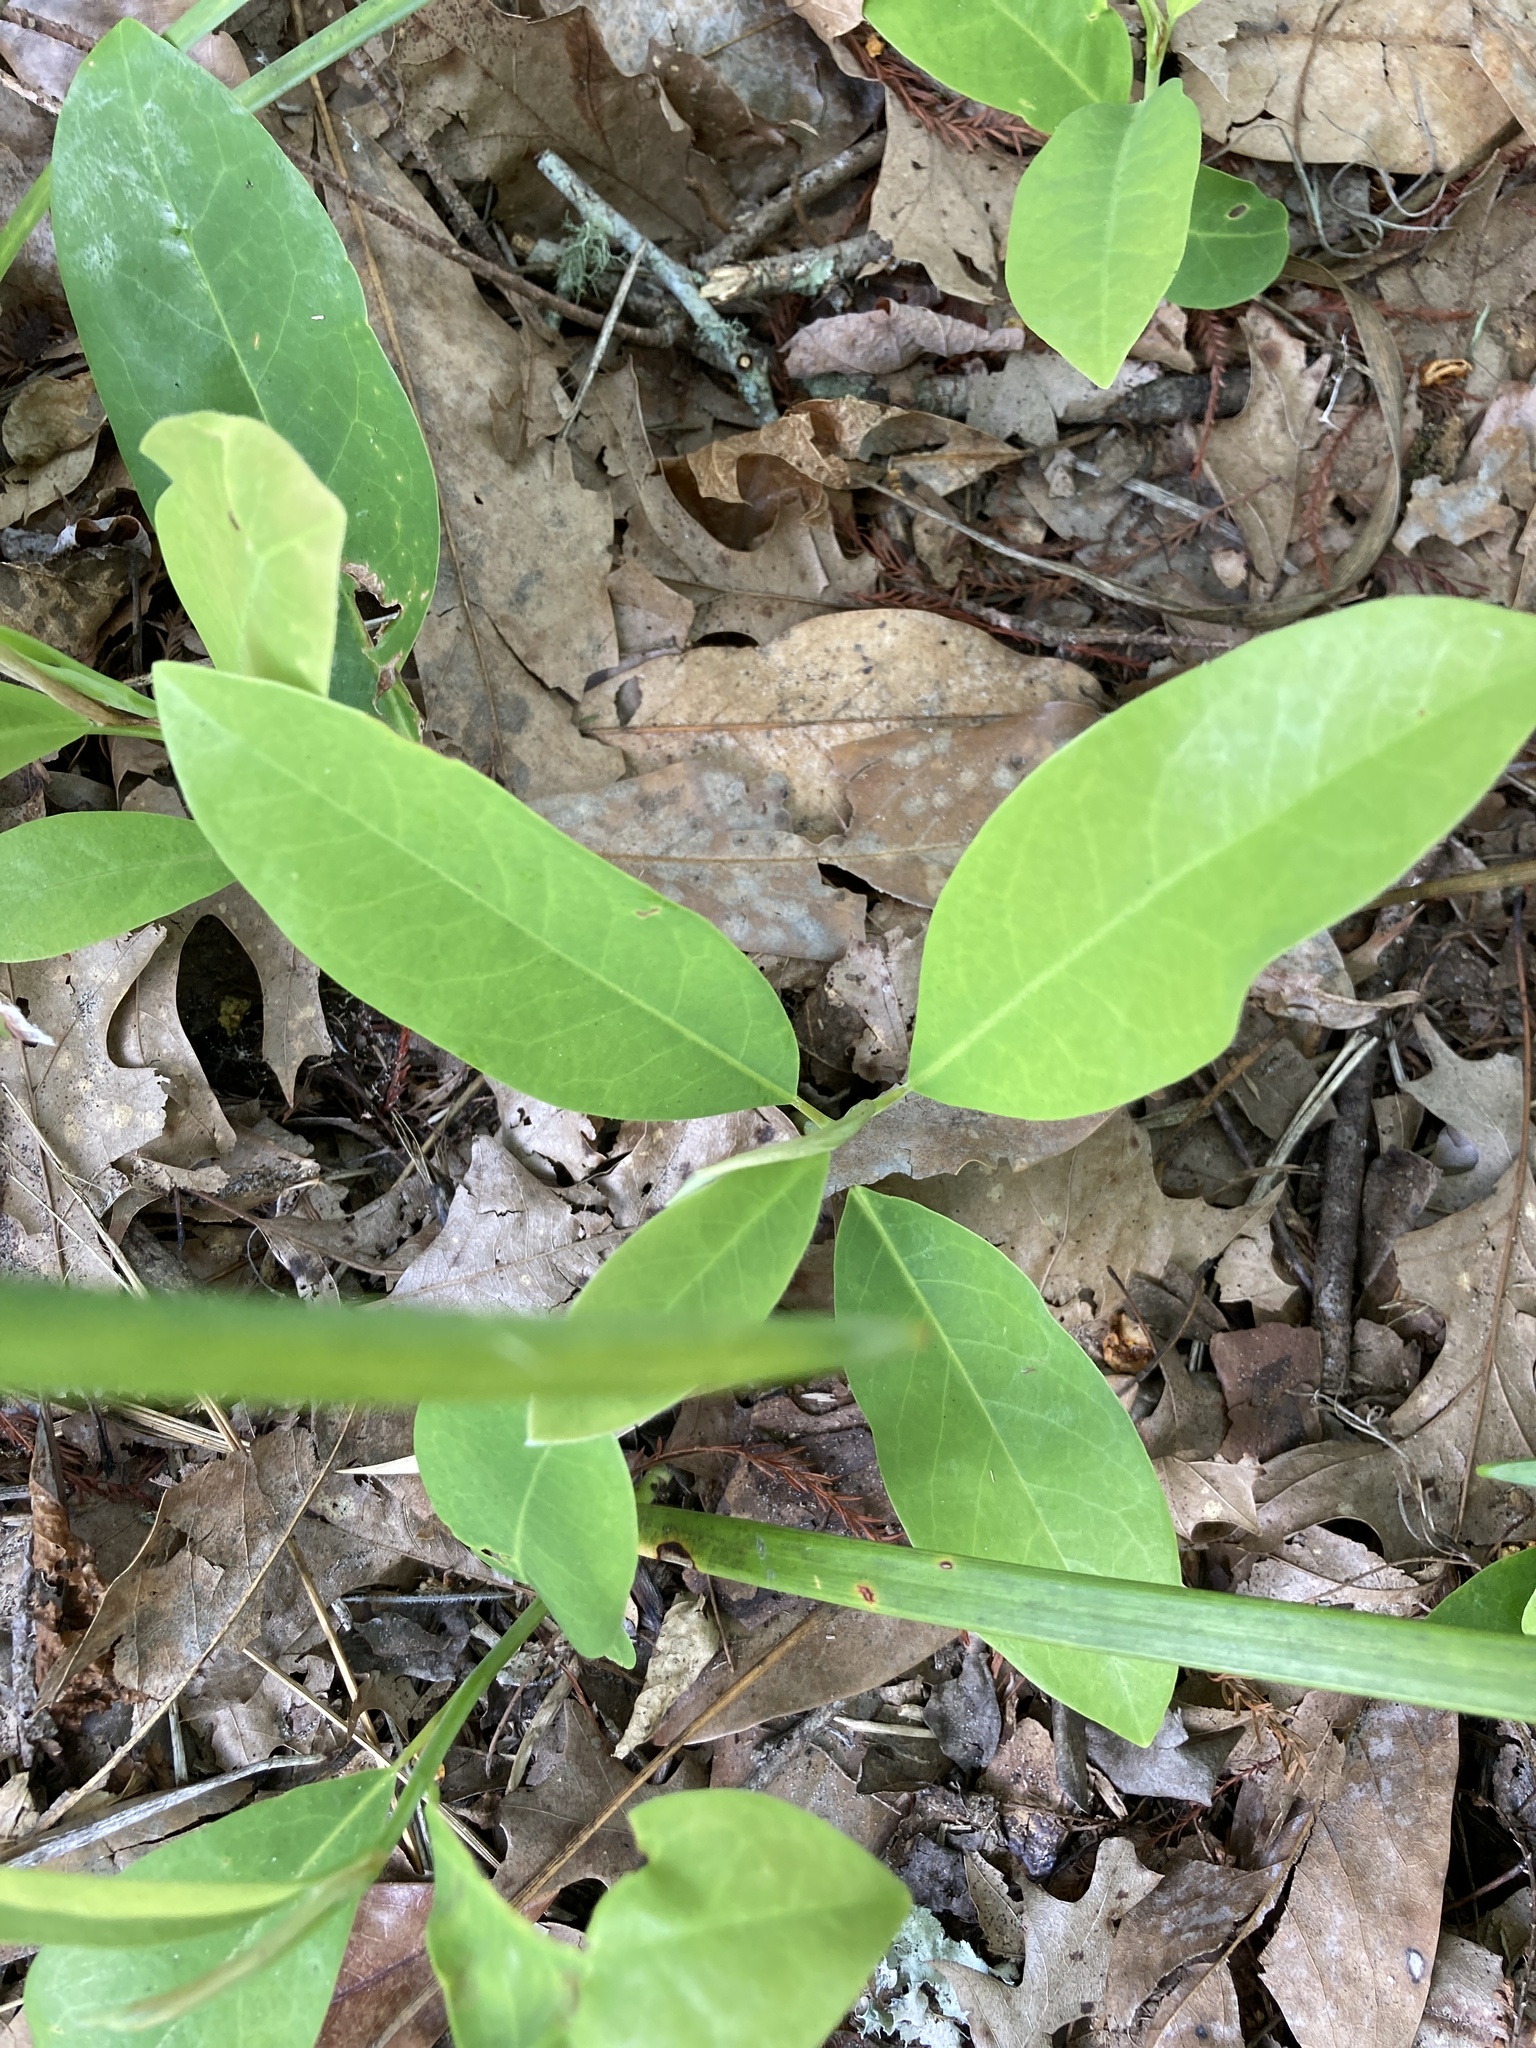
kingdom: Plantae
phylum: Tracheophyta
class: Magnoliopsida
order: Magnoliales
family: Magnoliaceae
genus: Magnolia
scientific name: Magnolia virginiana
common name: Swamp bay
